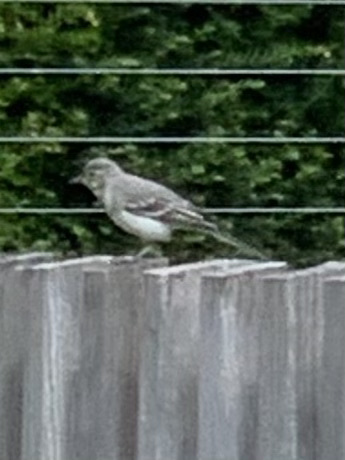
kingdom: Animalia
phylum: Chordata
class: Aves
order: Passeriformes
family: Motacillidae
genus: Motacilla
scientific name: Motacilla alba
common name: White wagtail
